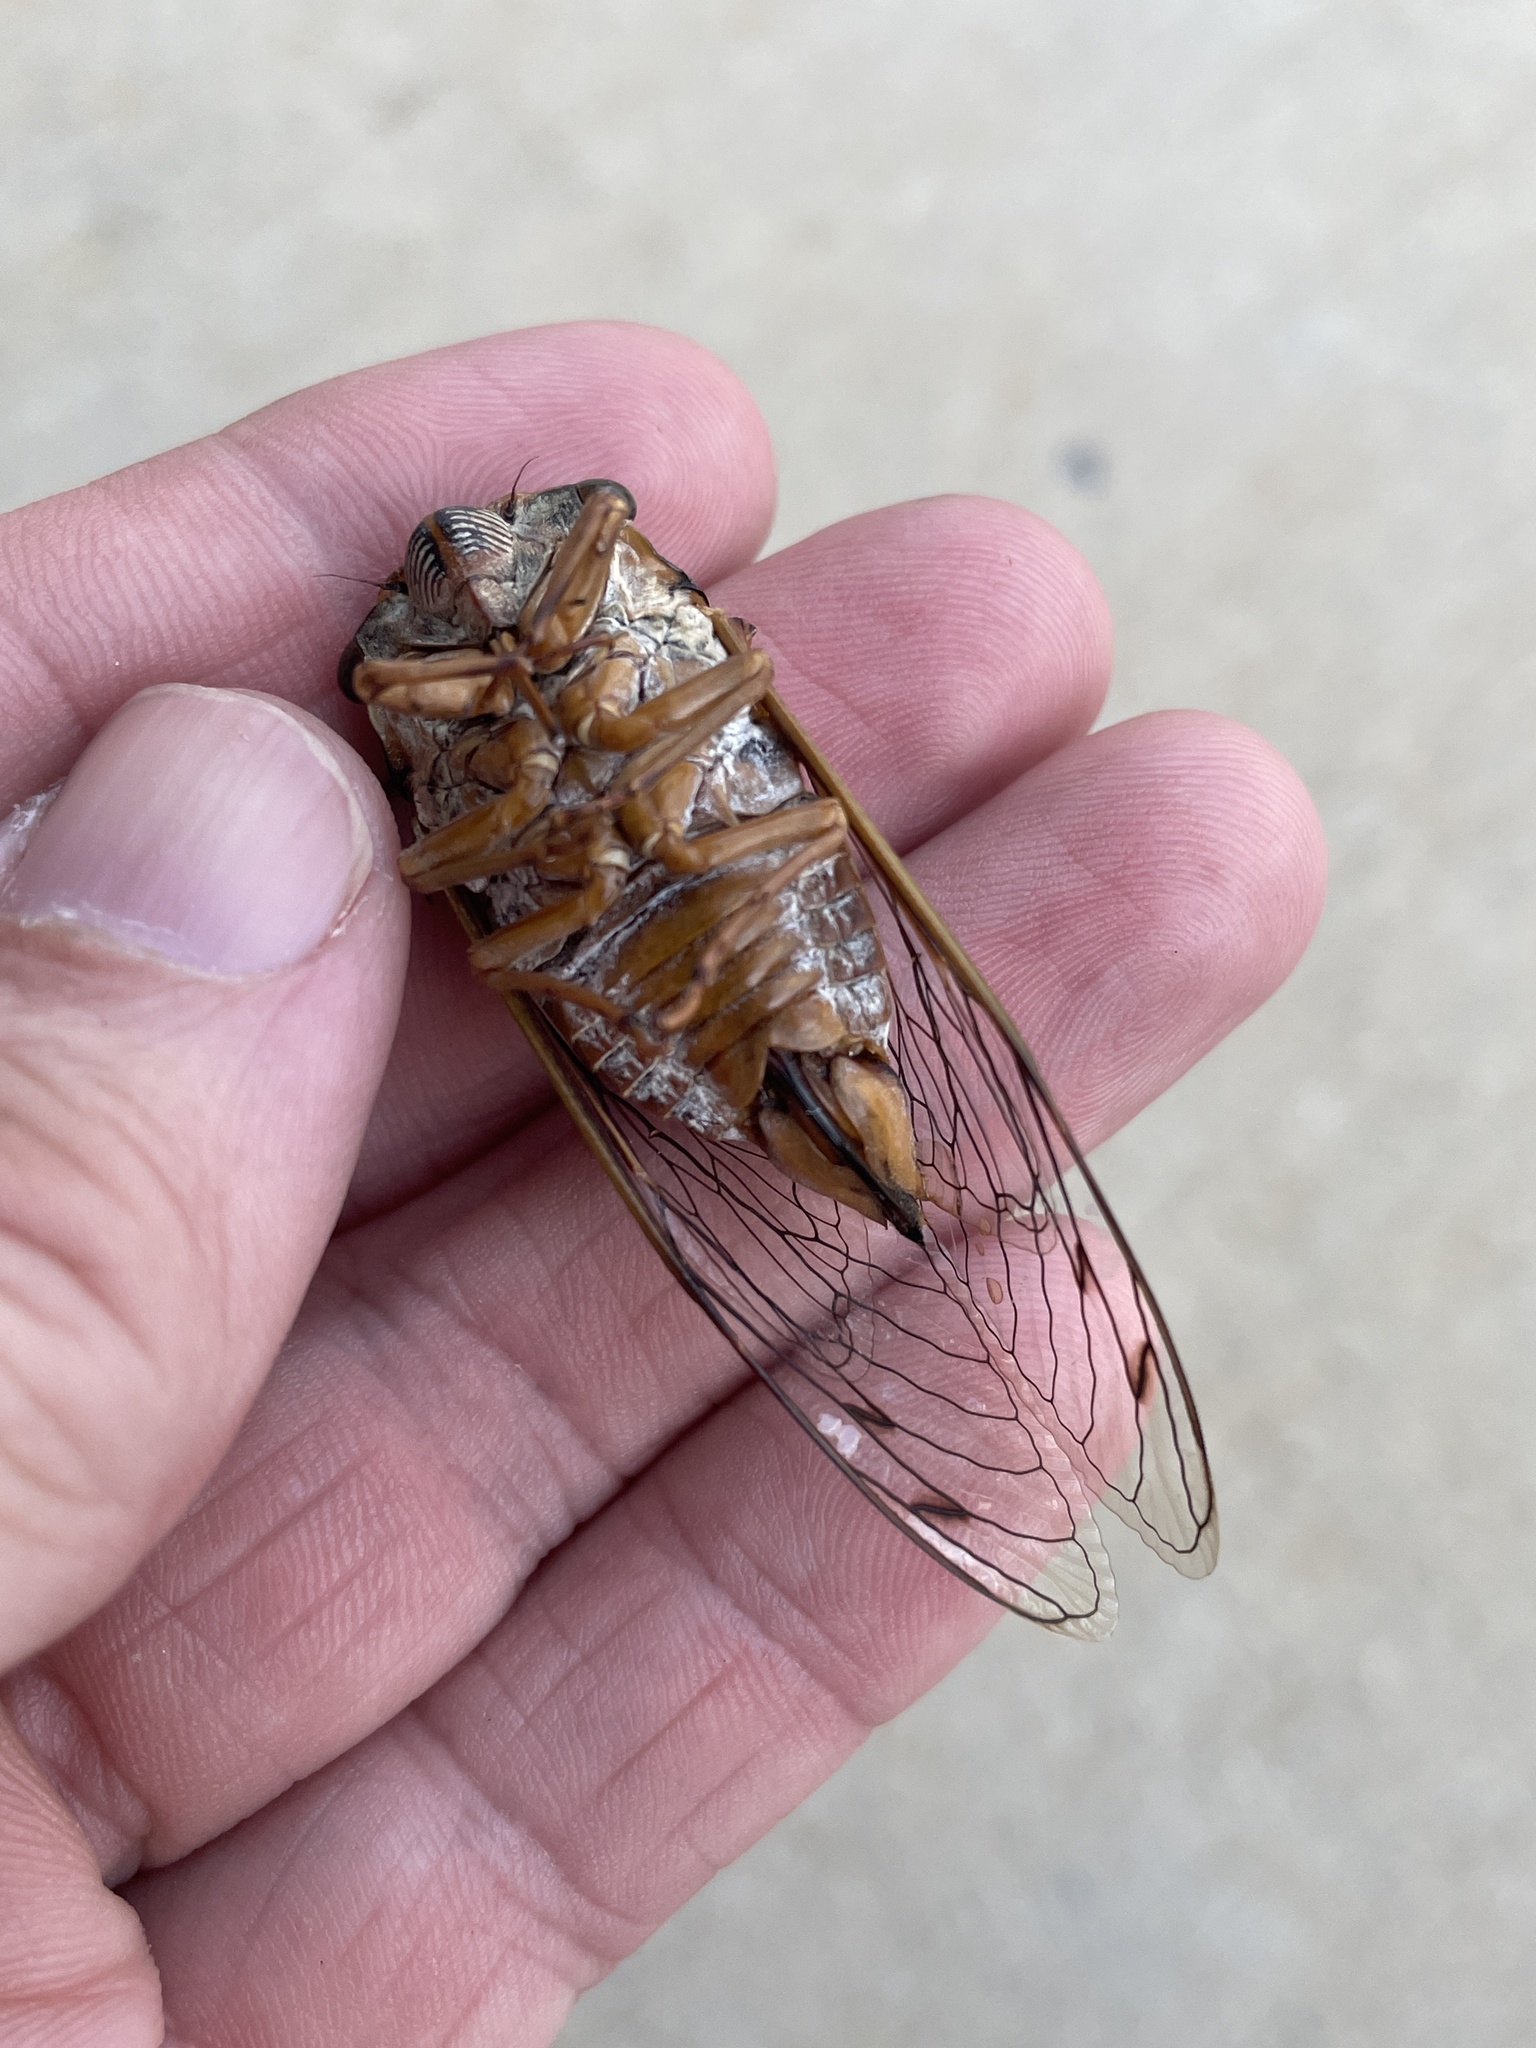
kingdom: Animalia
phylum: Arthropoda
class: Insecta
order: Hemiptera
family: Cicadidae
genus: Megatibicen
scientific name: Megatibicen resh
